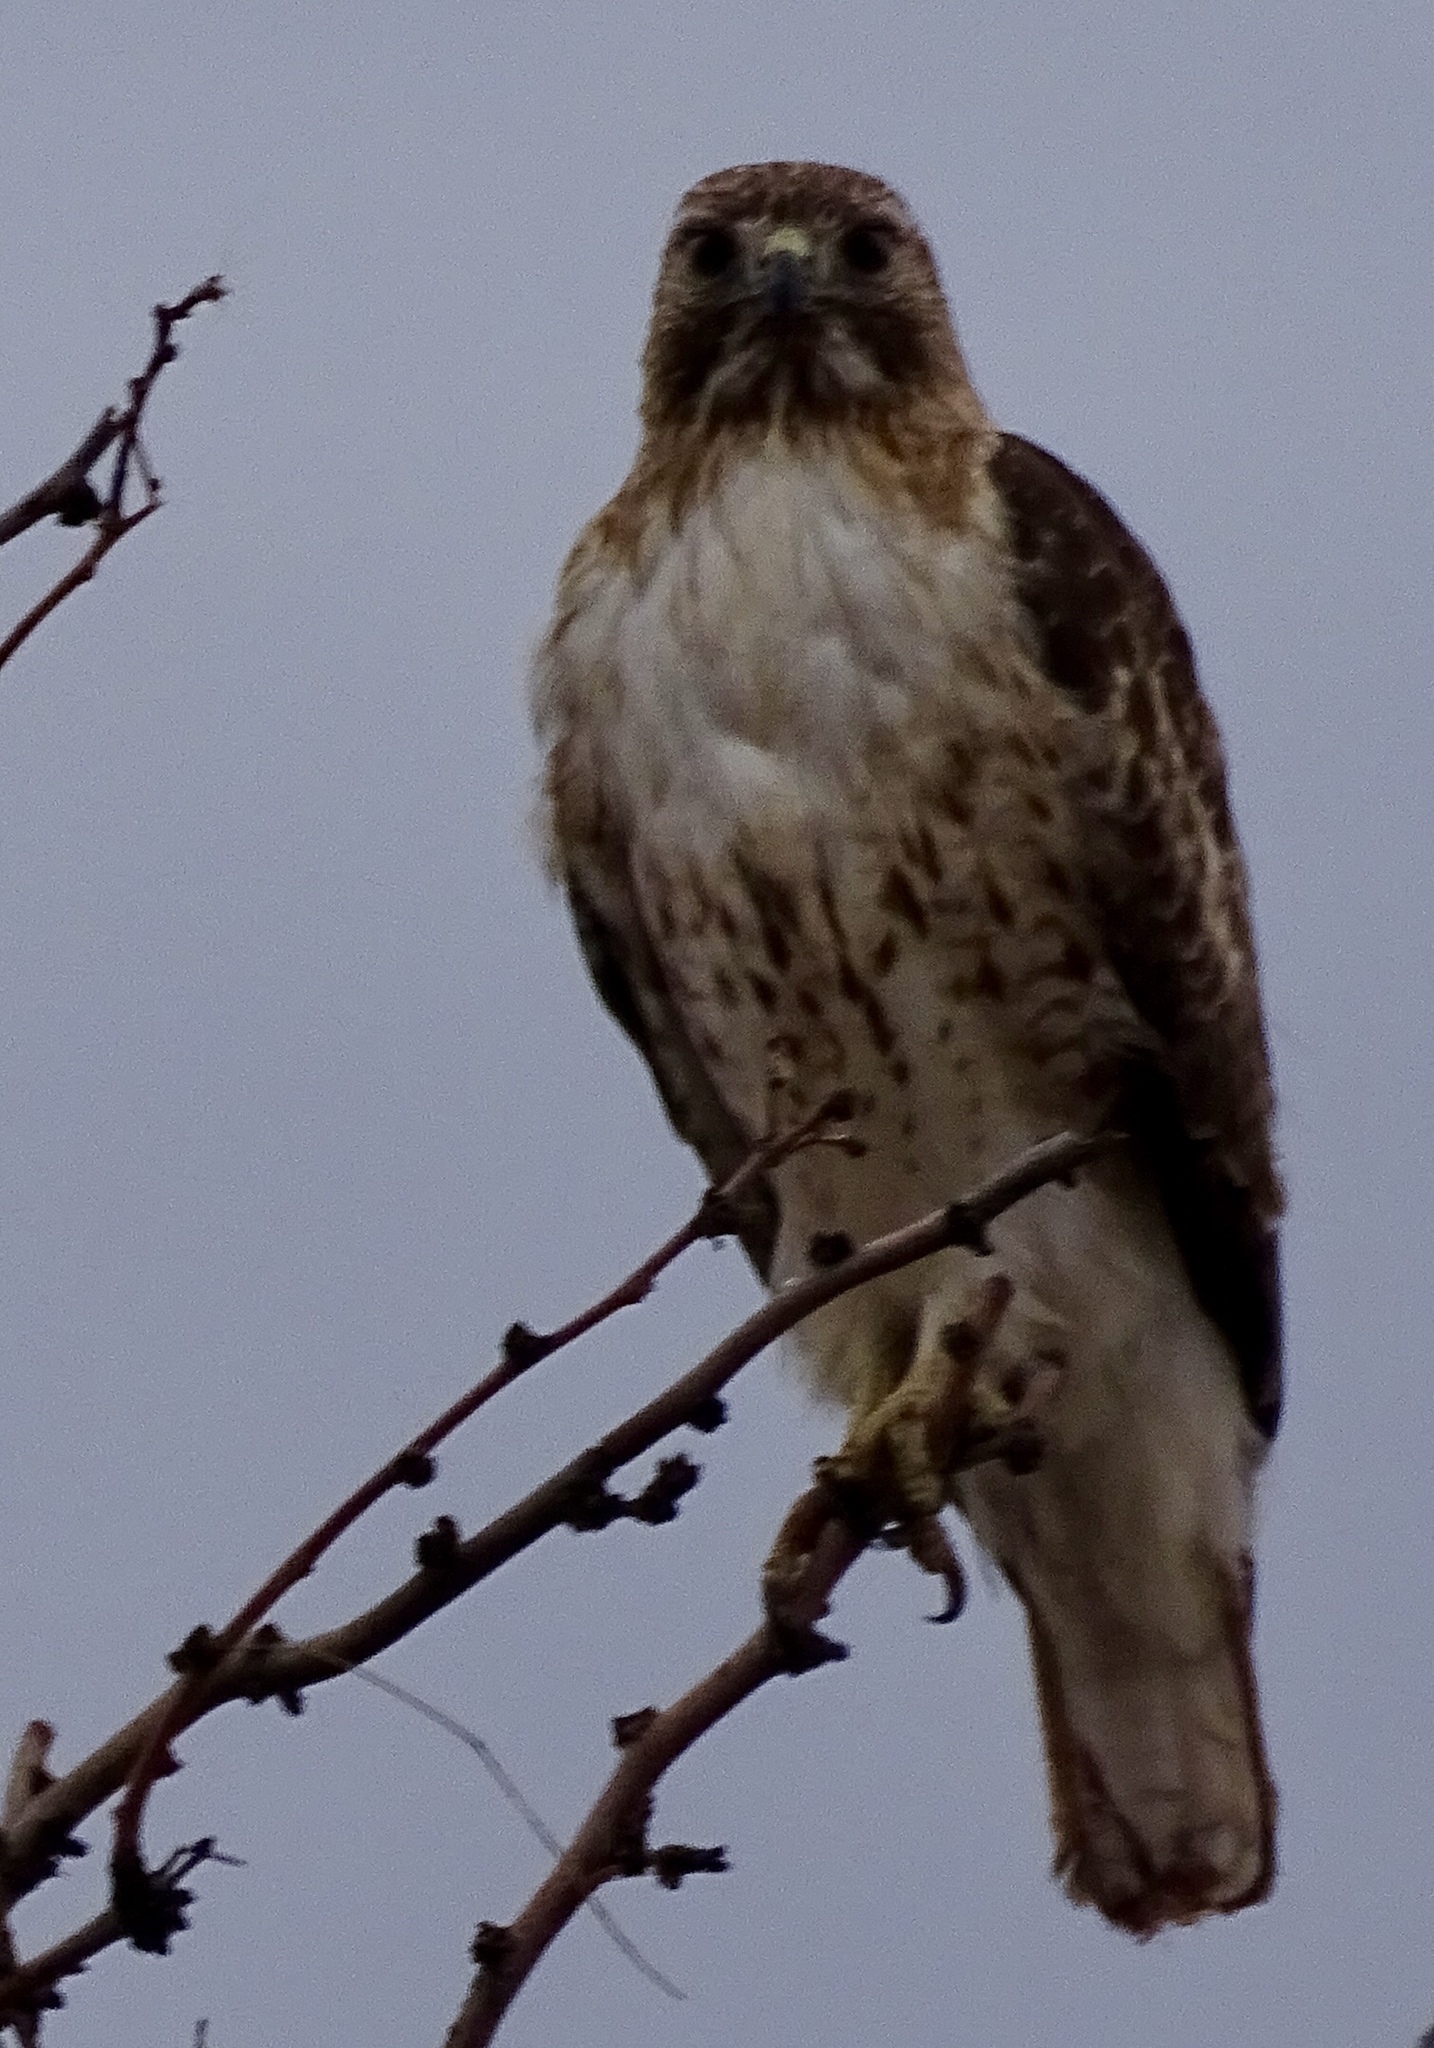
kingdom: Animalia
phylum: Chordata
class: Aves
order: Accipitriformes
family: Accipitridae
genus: Buteo
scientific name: Buteo jamaicensis
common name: Red-tailed hawk
